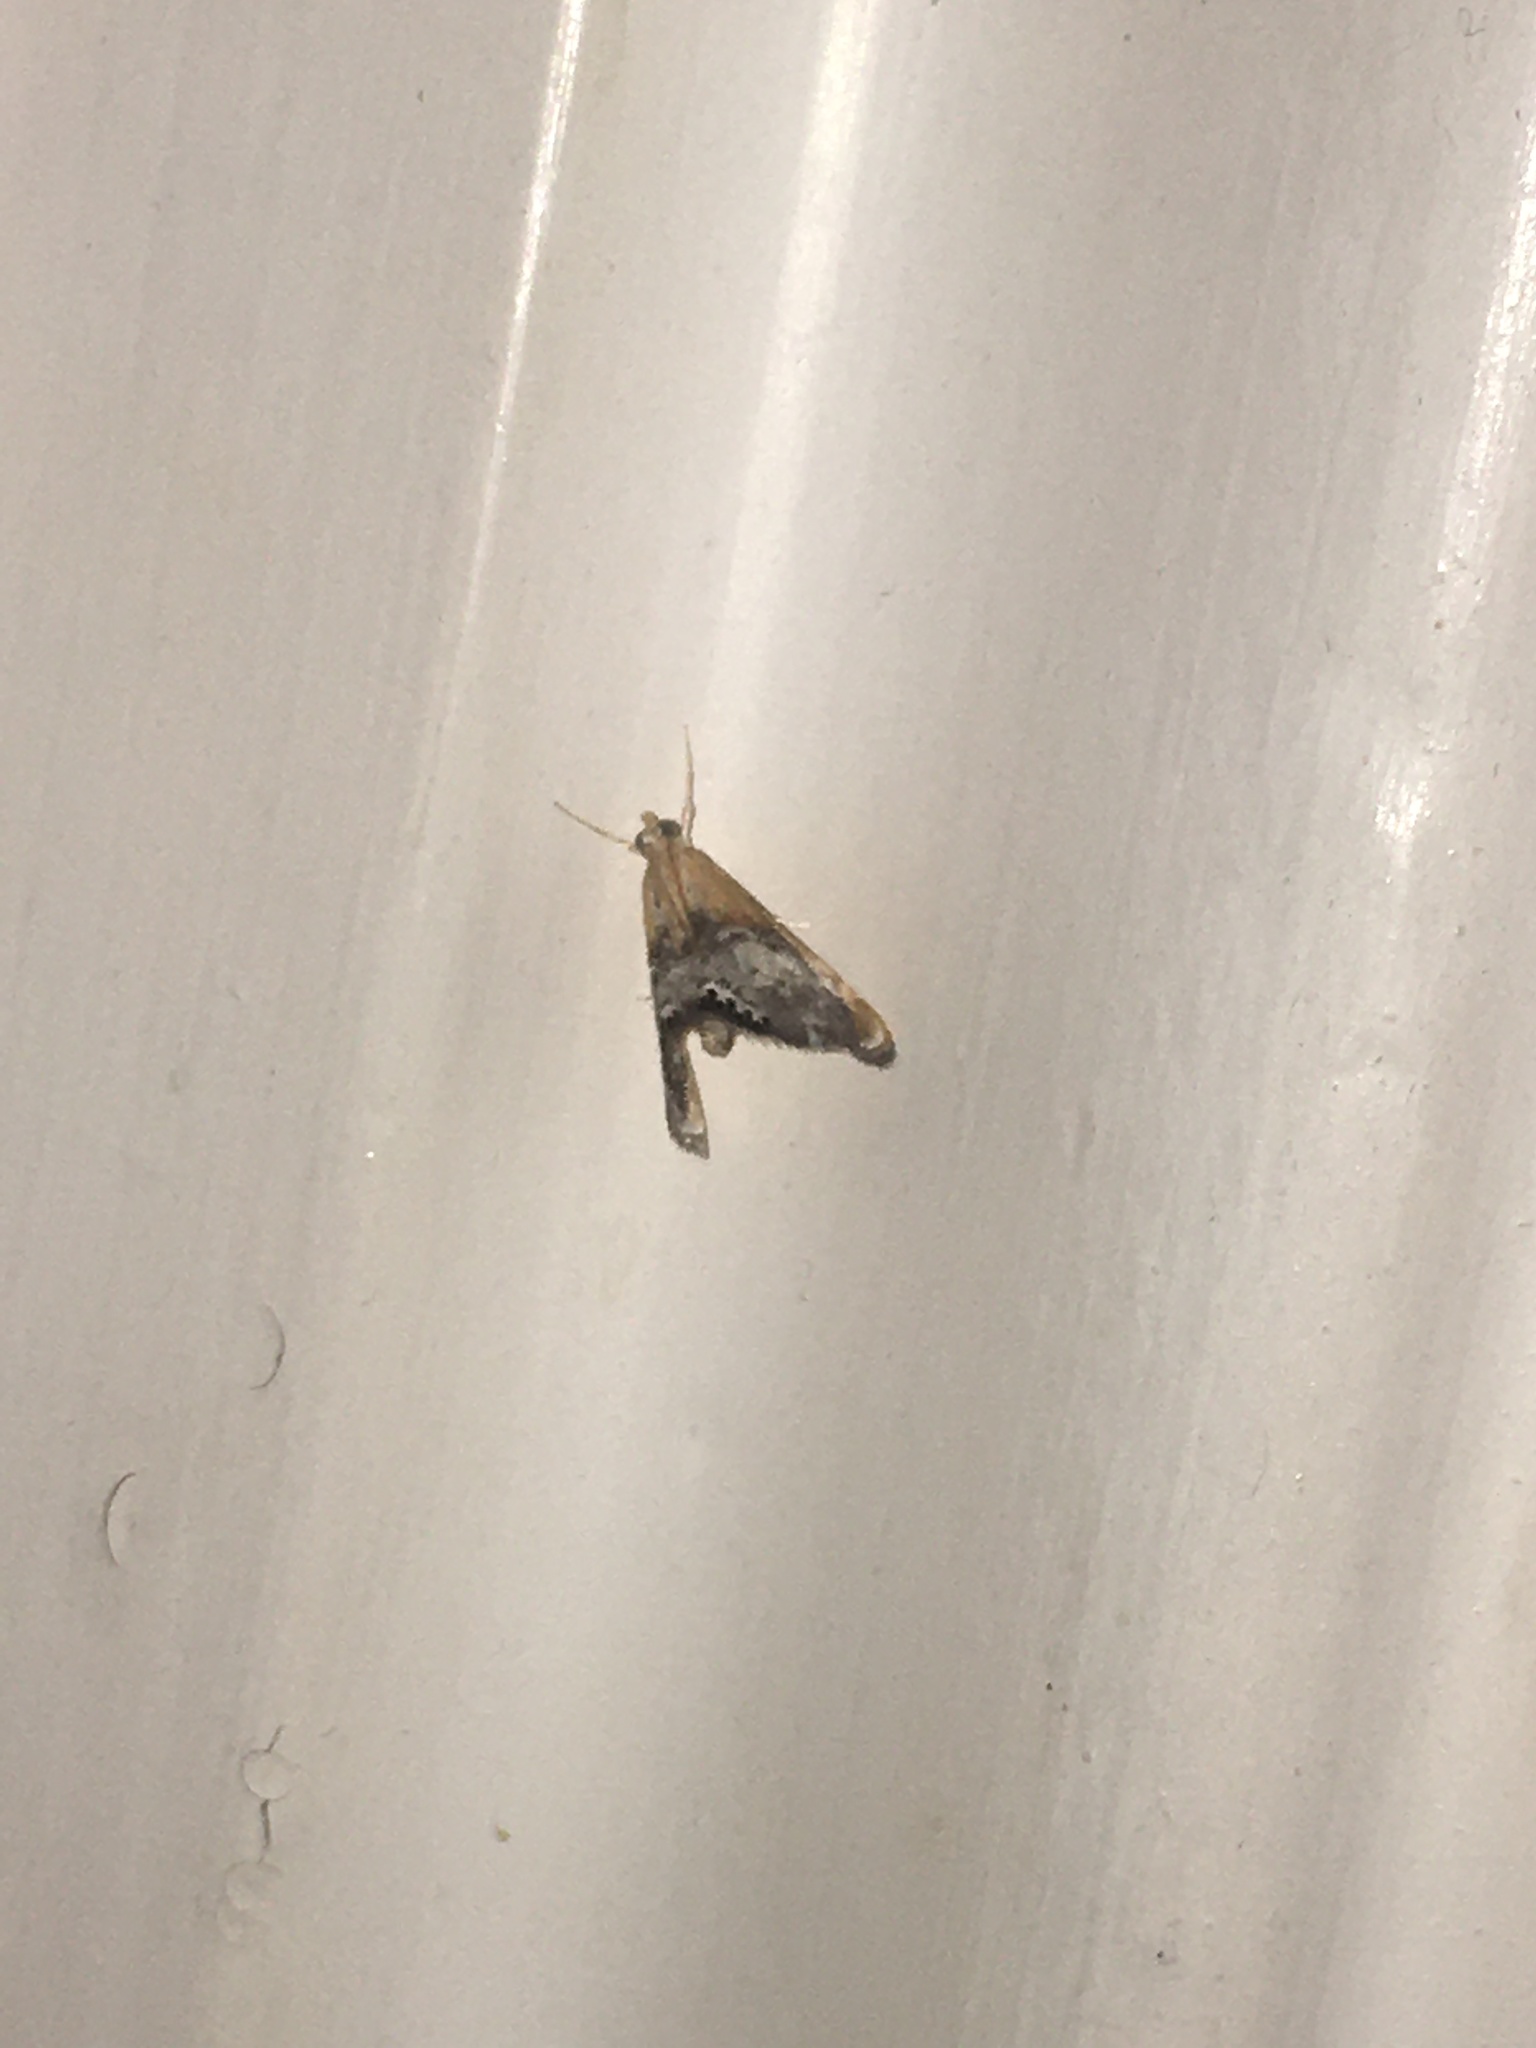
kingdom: Animalia
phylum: Arthropoda
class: Insecta
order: Lepidoptera
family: Crambidae
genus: Chalcoela
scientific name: Chalcoela iphitalis
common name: Sooty-winged chalcoela moth
